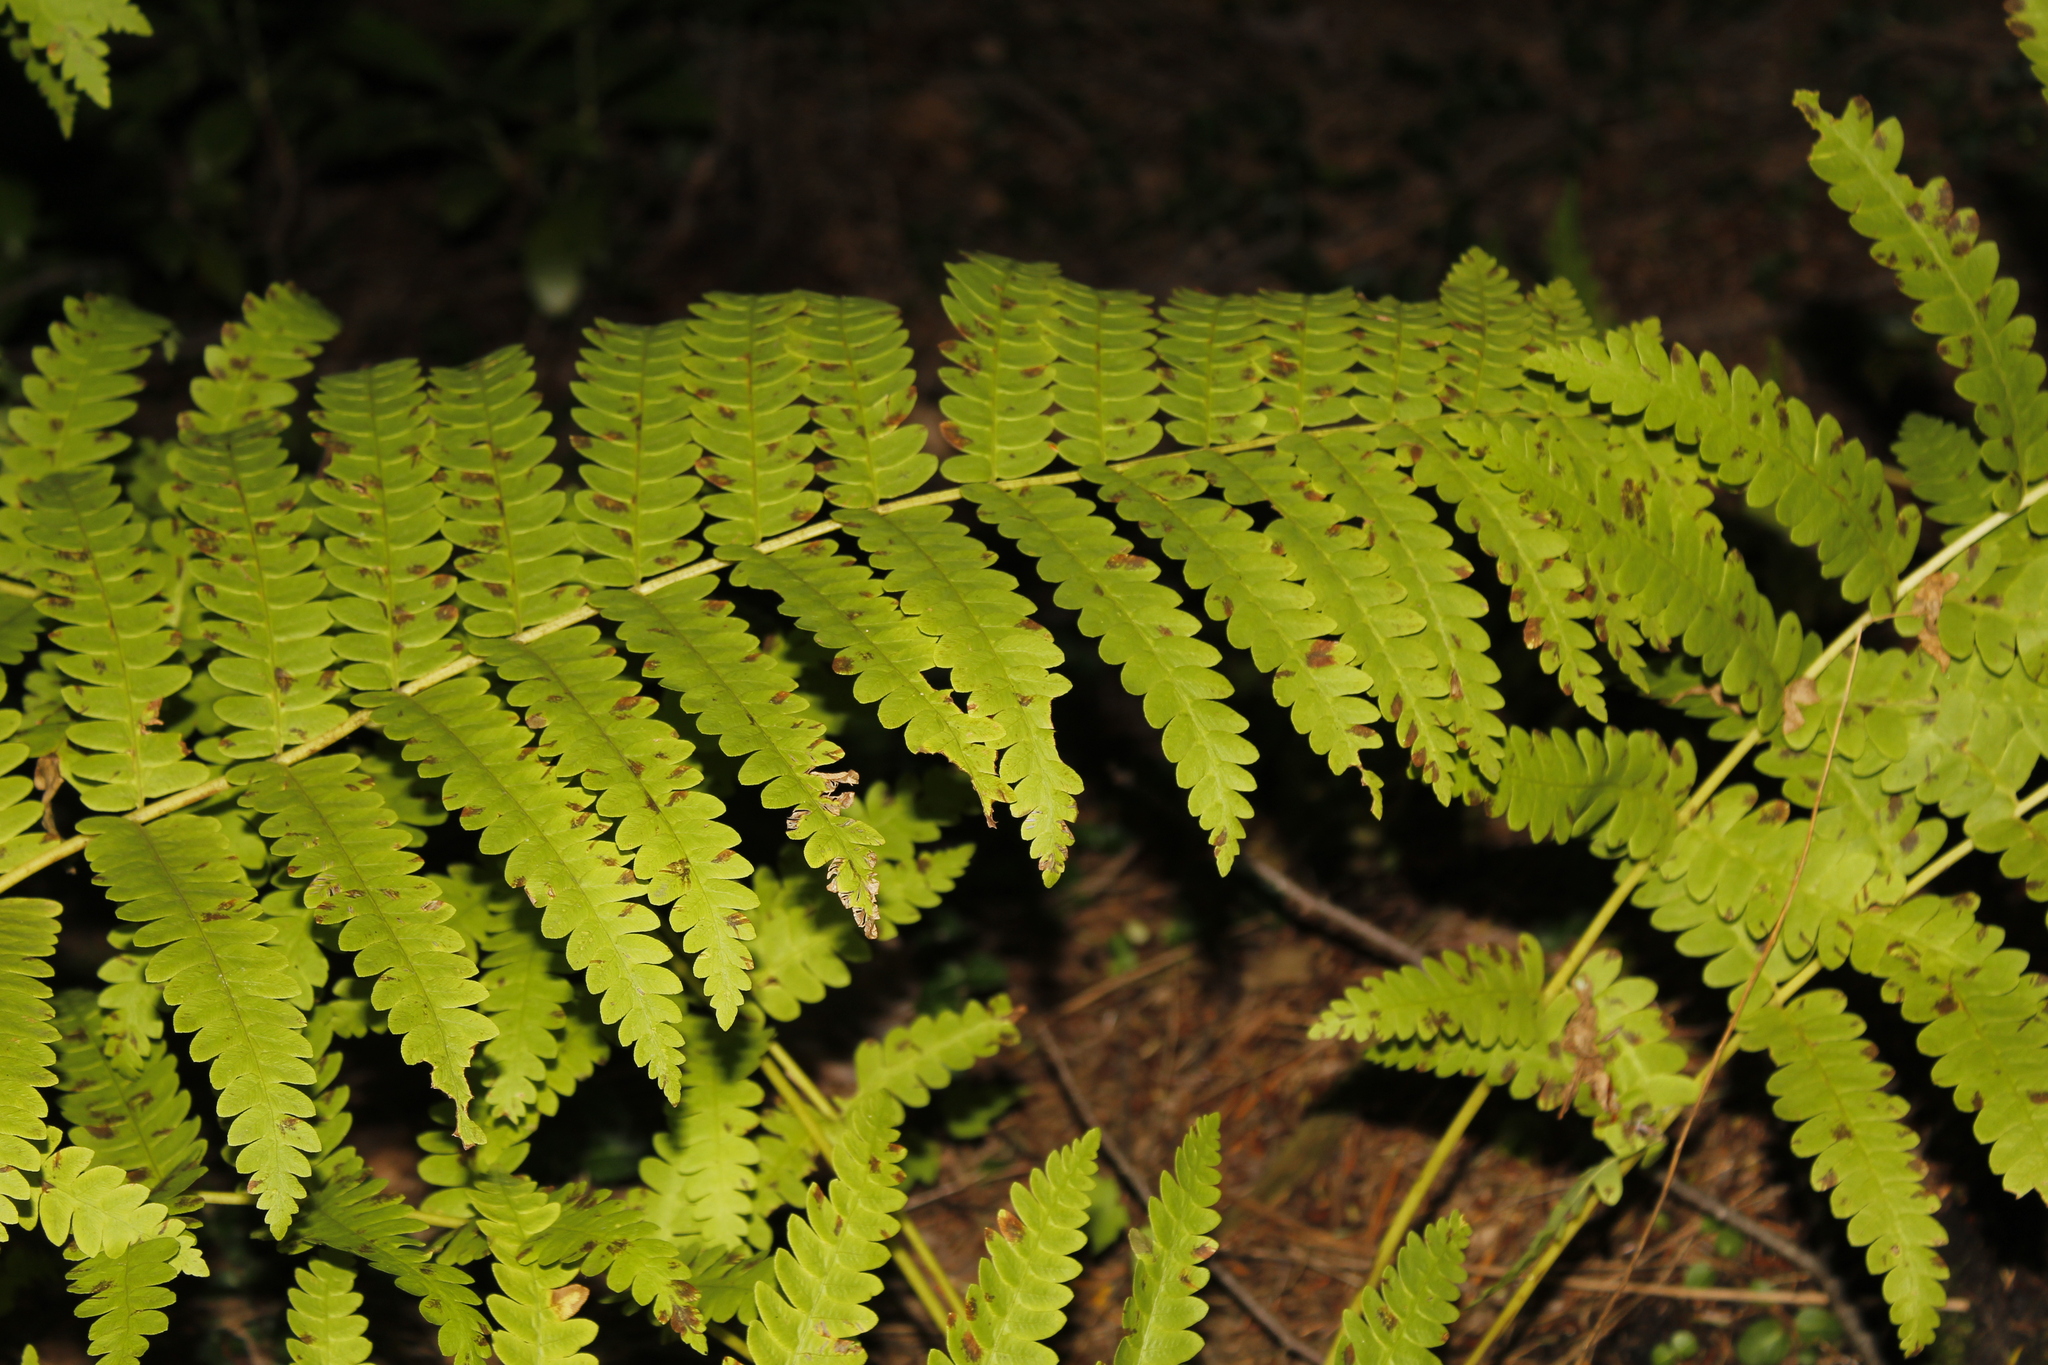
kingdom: Plantae
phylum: Tracheophyta
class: Polypodiopsida
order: Osmundales
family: Osmundaceae
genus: Claytosmunda
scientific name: Claytosmunda claytoniana
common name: Clayton's fern
